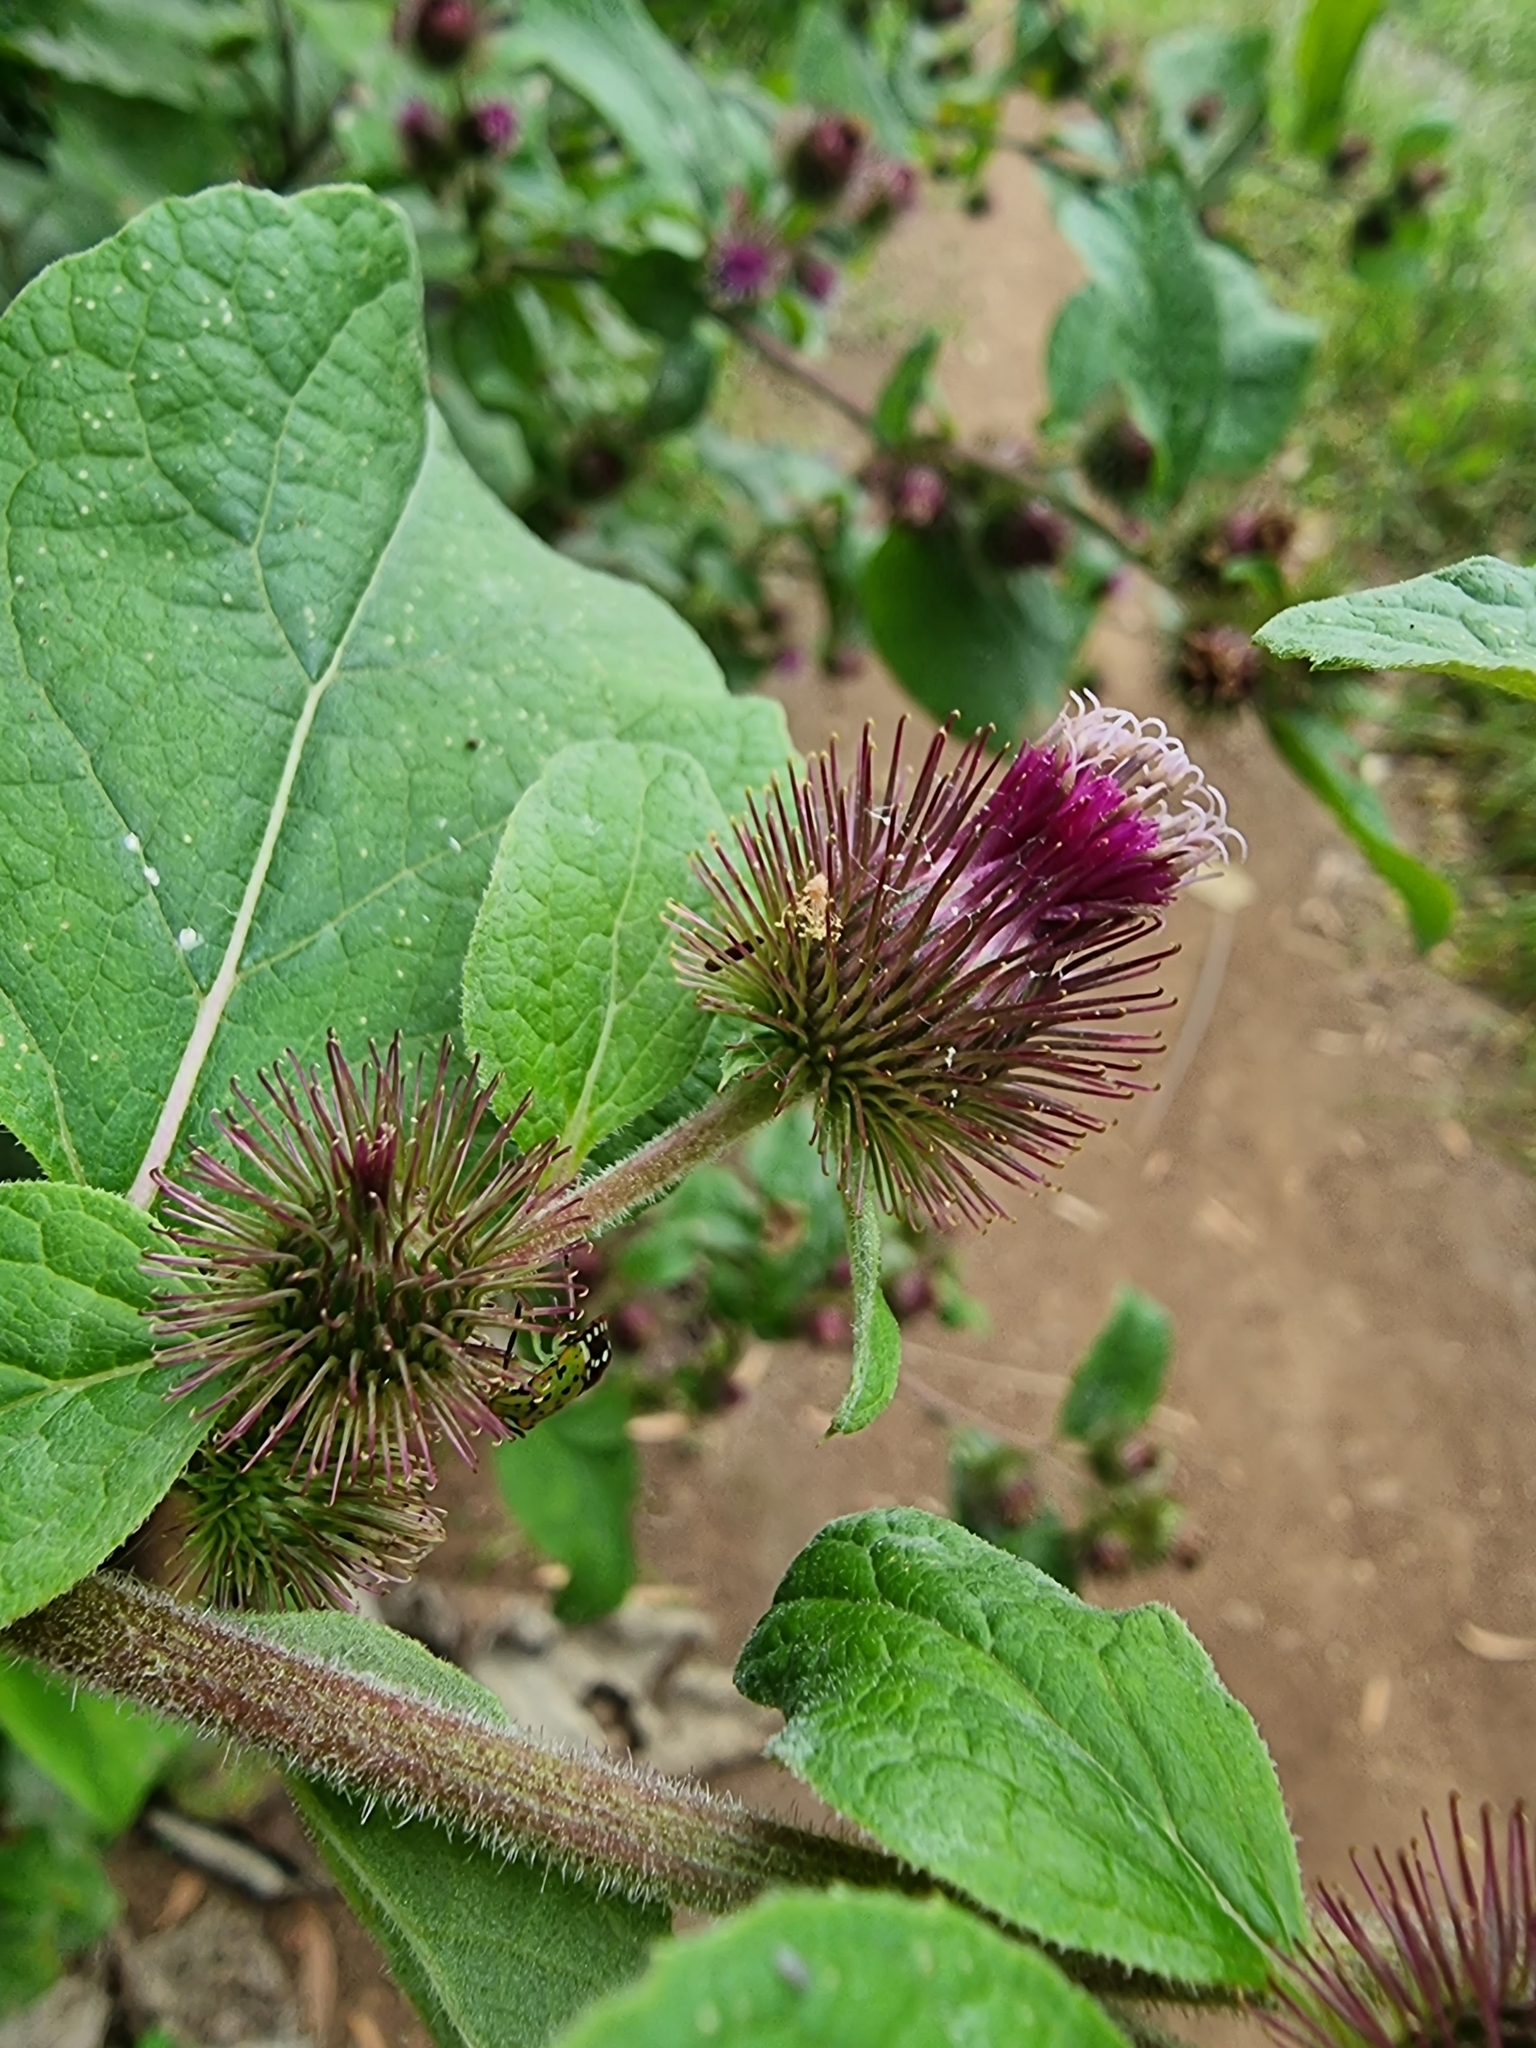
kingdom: Plantae
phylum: Tracheophyta
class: Magnoliopsida
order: Asterales
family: Asteraceae
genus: Arctium
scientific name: Arctium minus
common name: Lesser burdock
